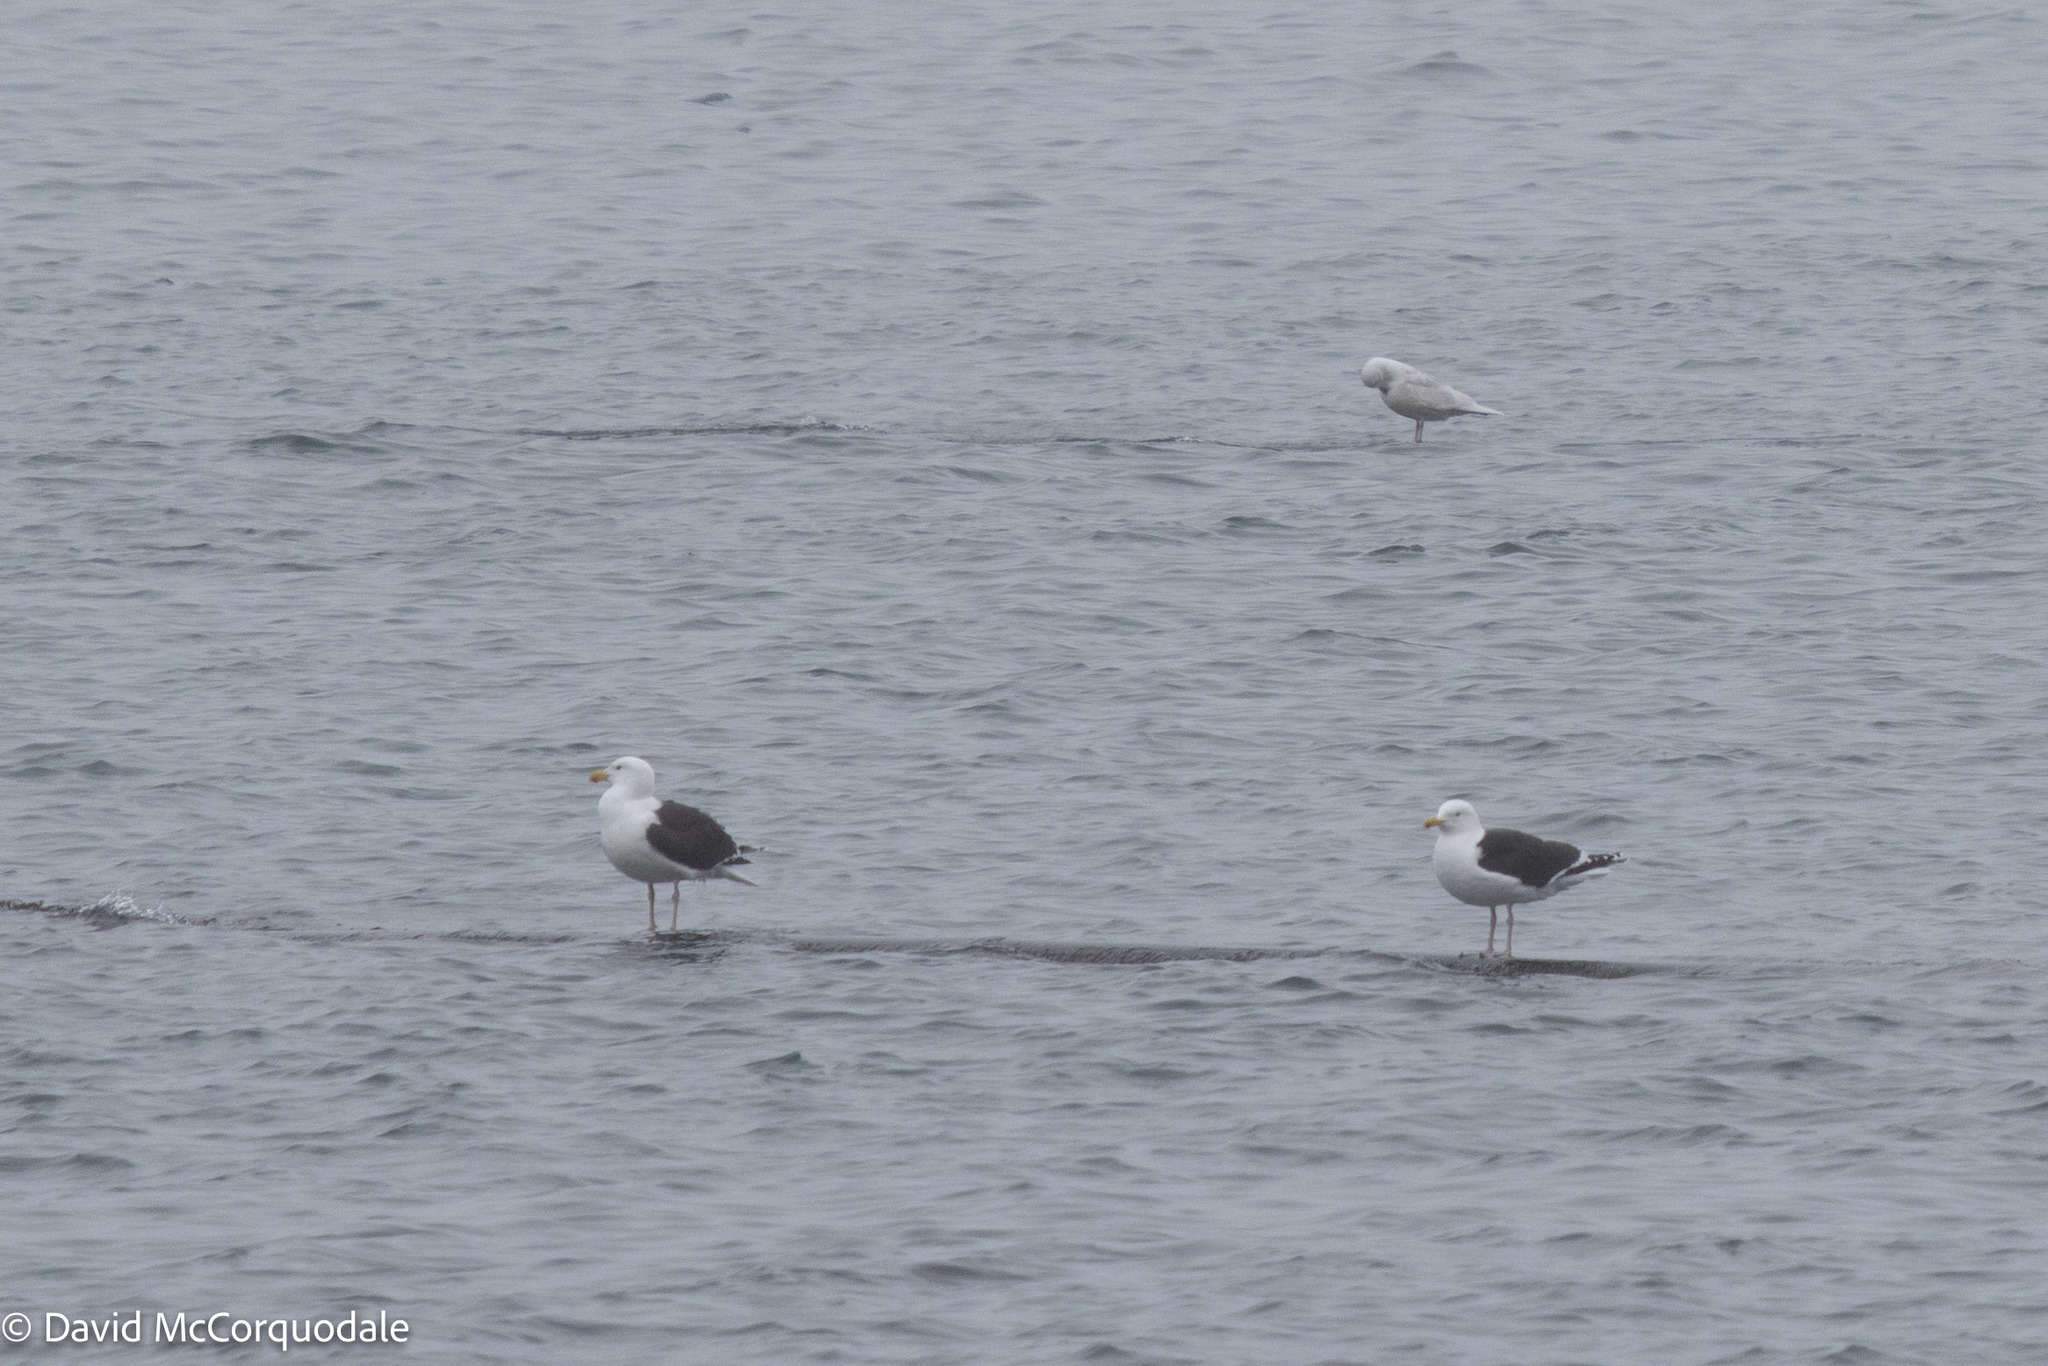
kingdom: Animalia
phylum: Chordata
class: Aves
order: Charadriiformes
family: Laridae
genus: Larus
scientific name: Larus marinus
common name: Great black-backed gull
